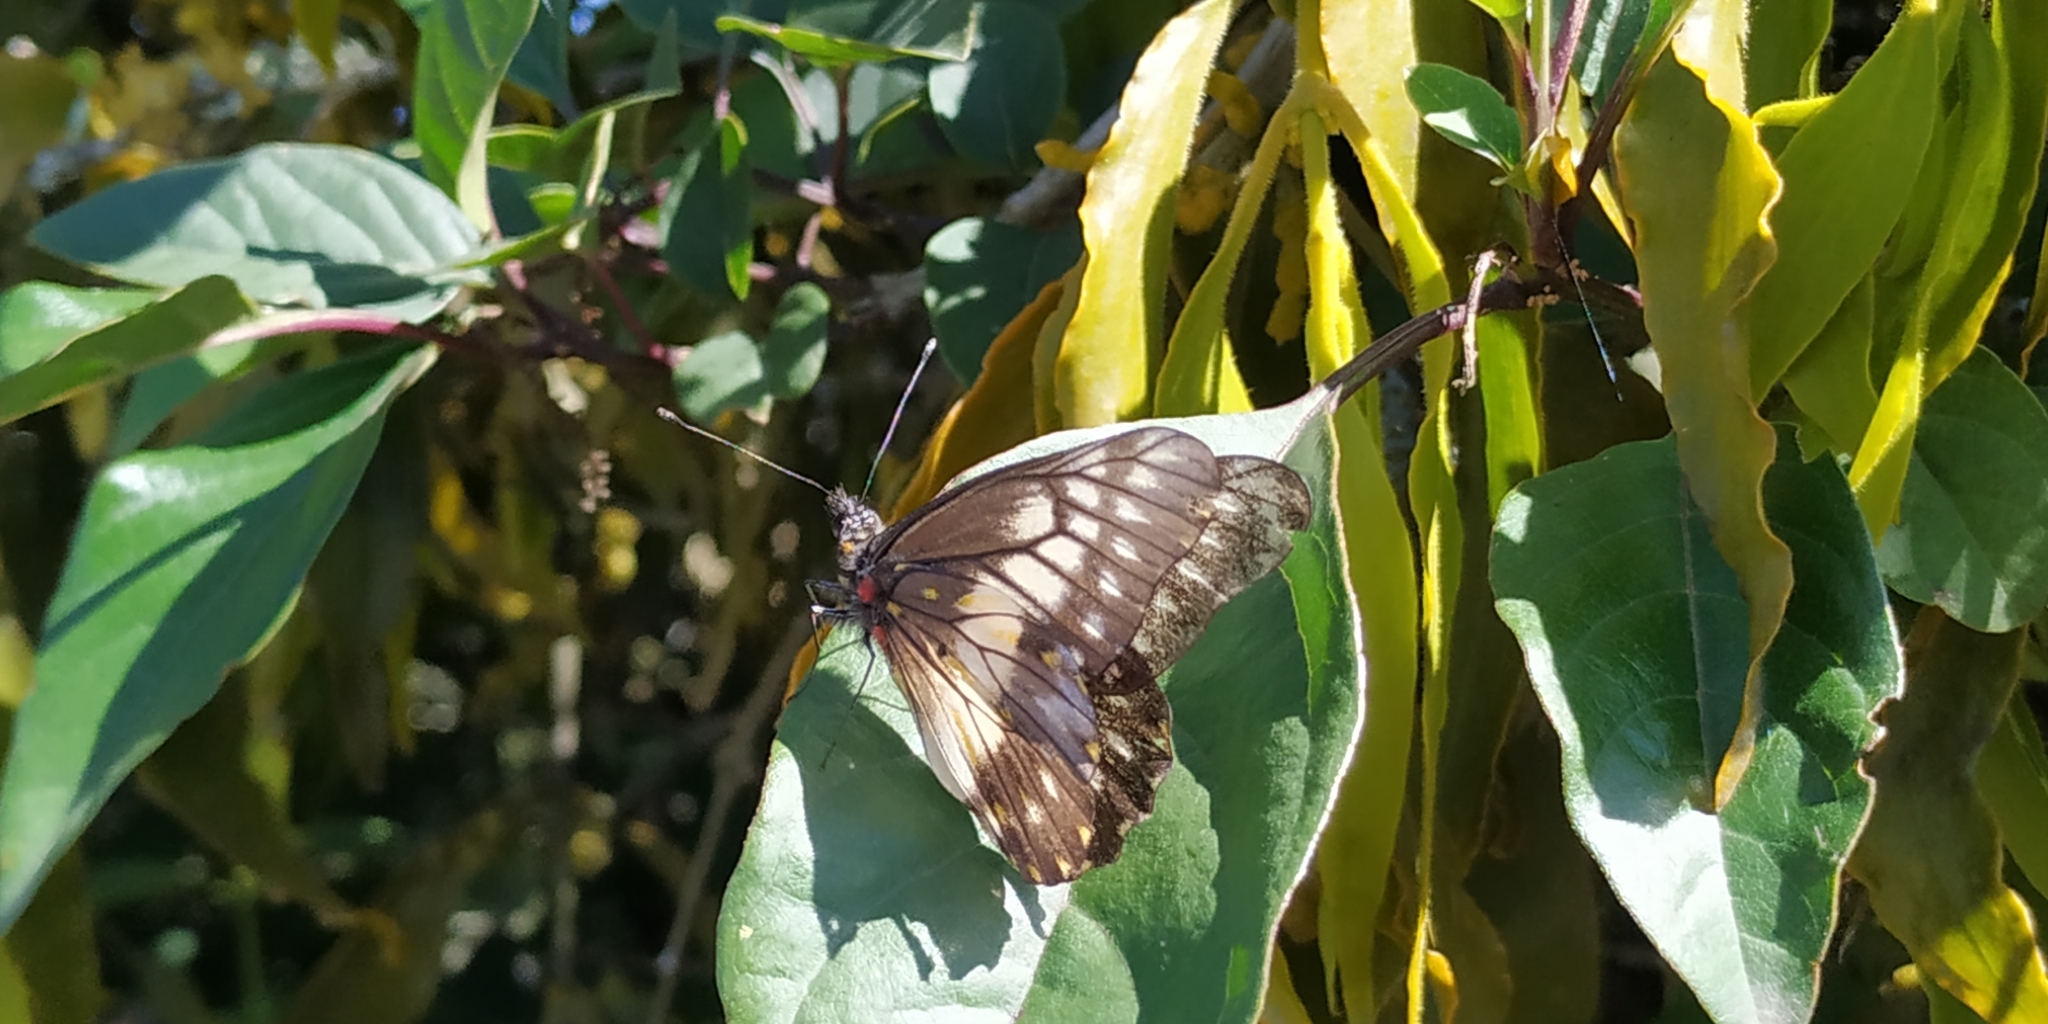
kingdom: Animalia
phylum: Arthropoda
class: Insecta
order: Lepidoptera
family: Pieridae
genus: Archonias
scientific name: Archonias nimbice
